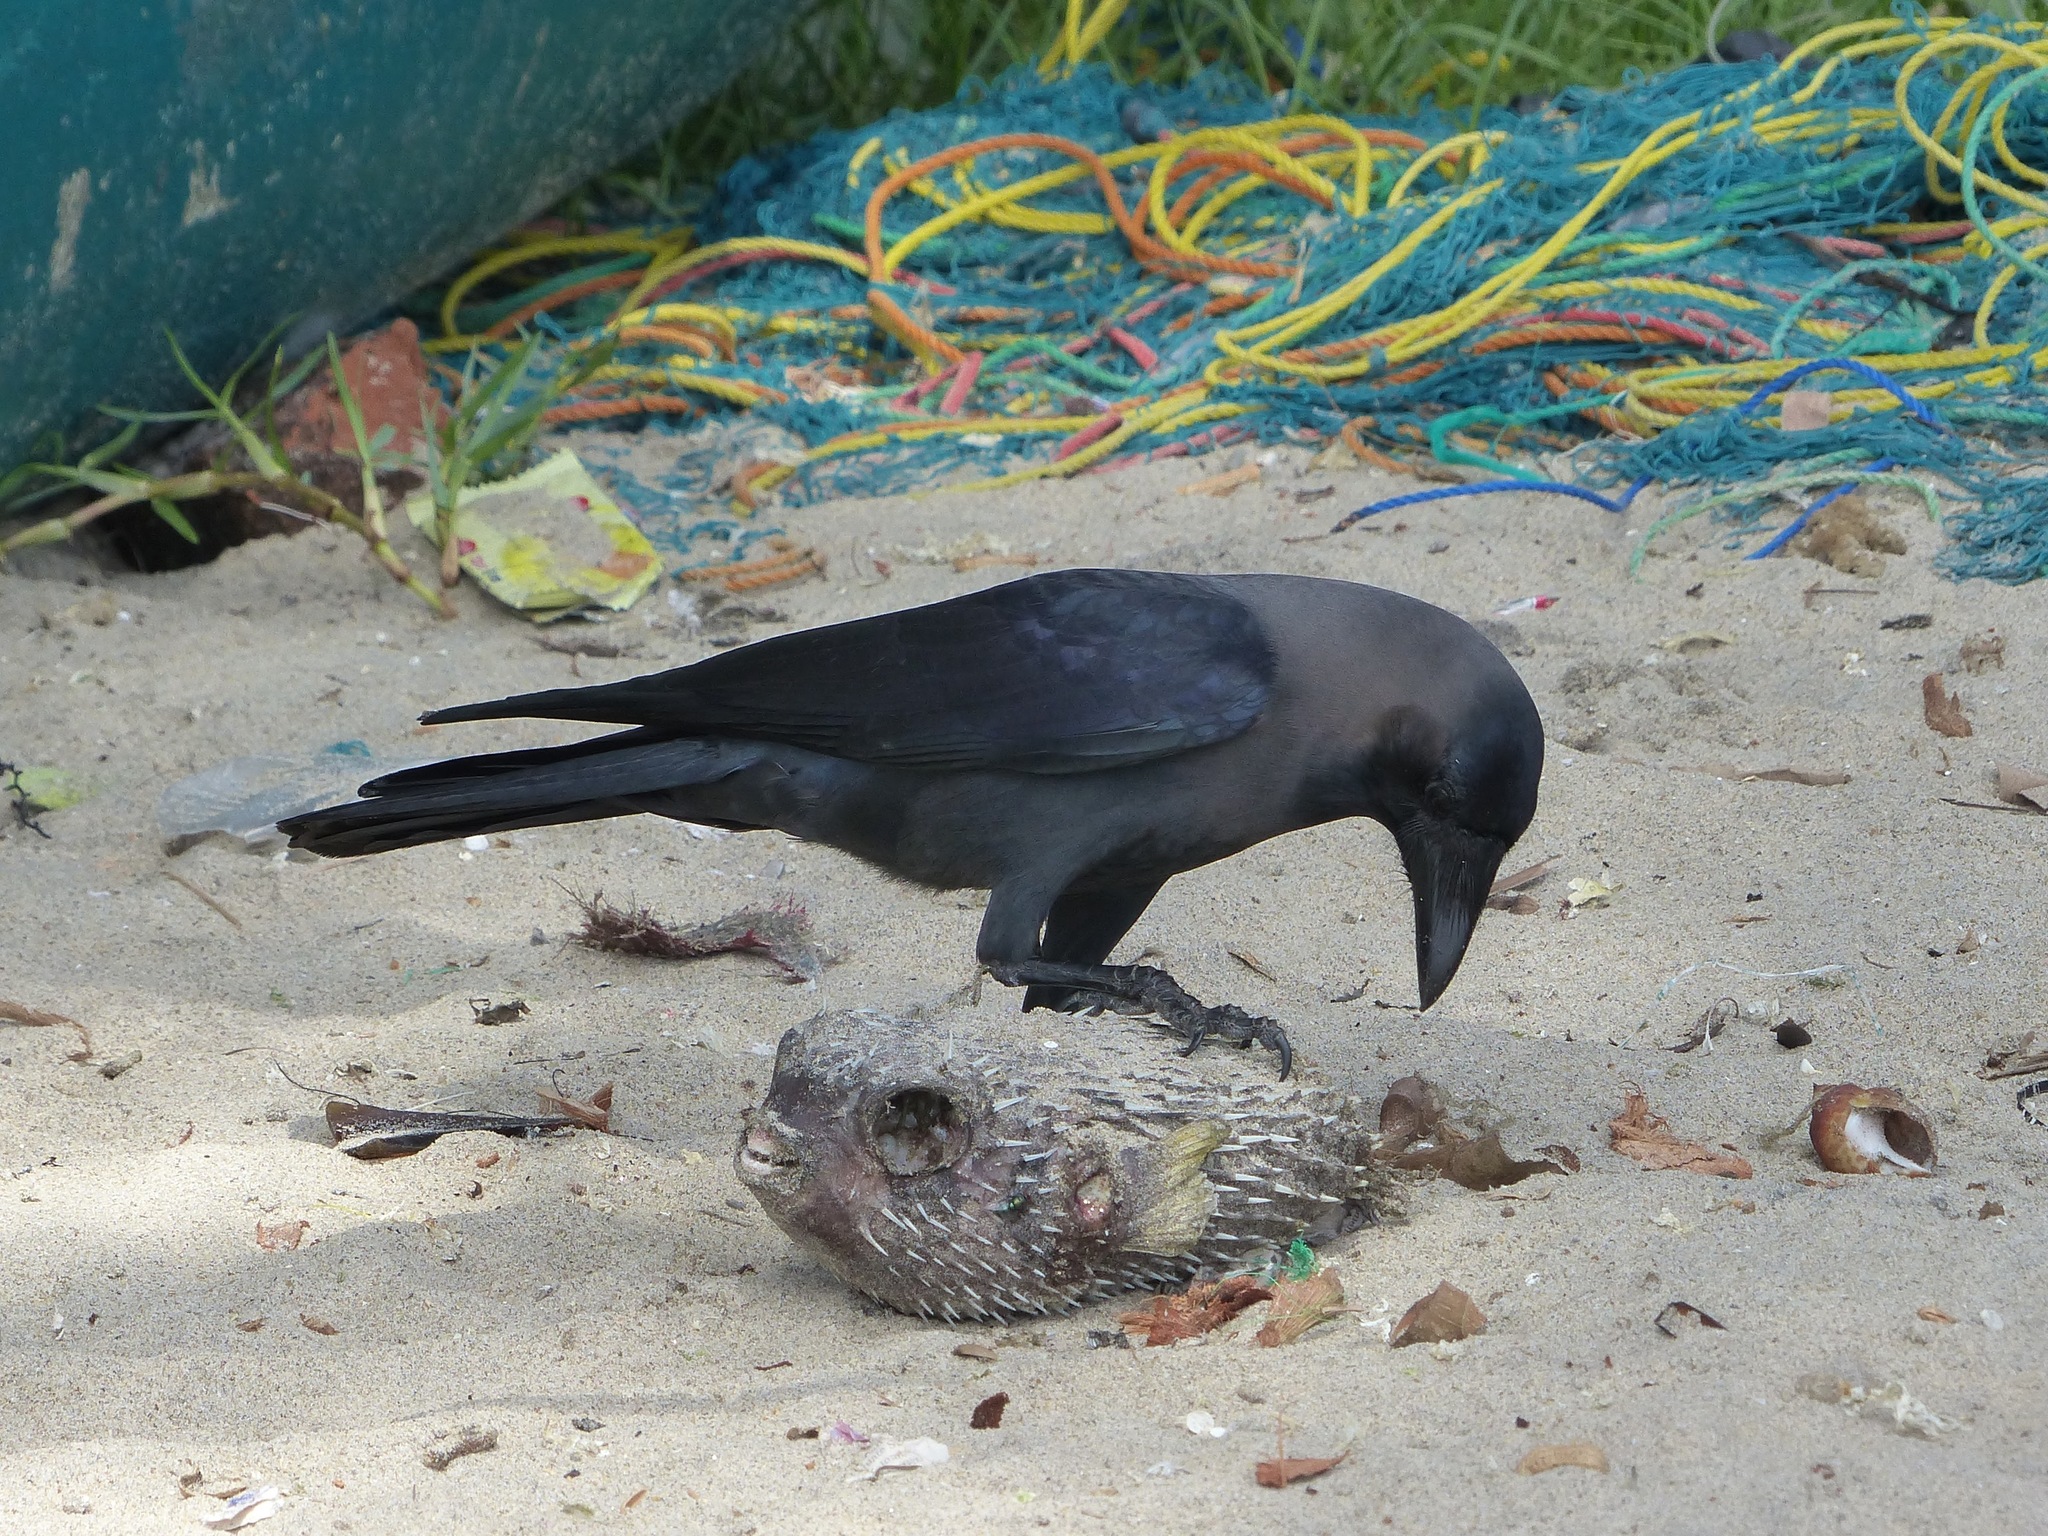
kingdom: Animalia
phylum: Chordata
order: Tetraodontiformes
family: Diodontidae
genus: Diodon
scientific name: Diodon hystrix
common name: Giant porcupinefish
